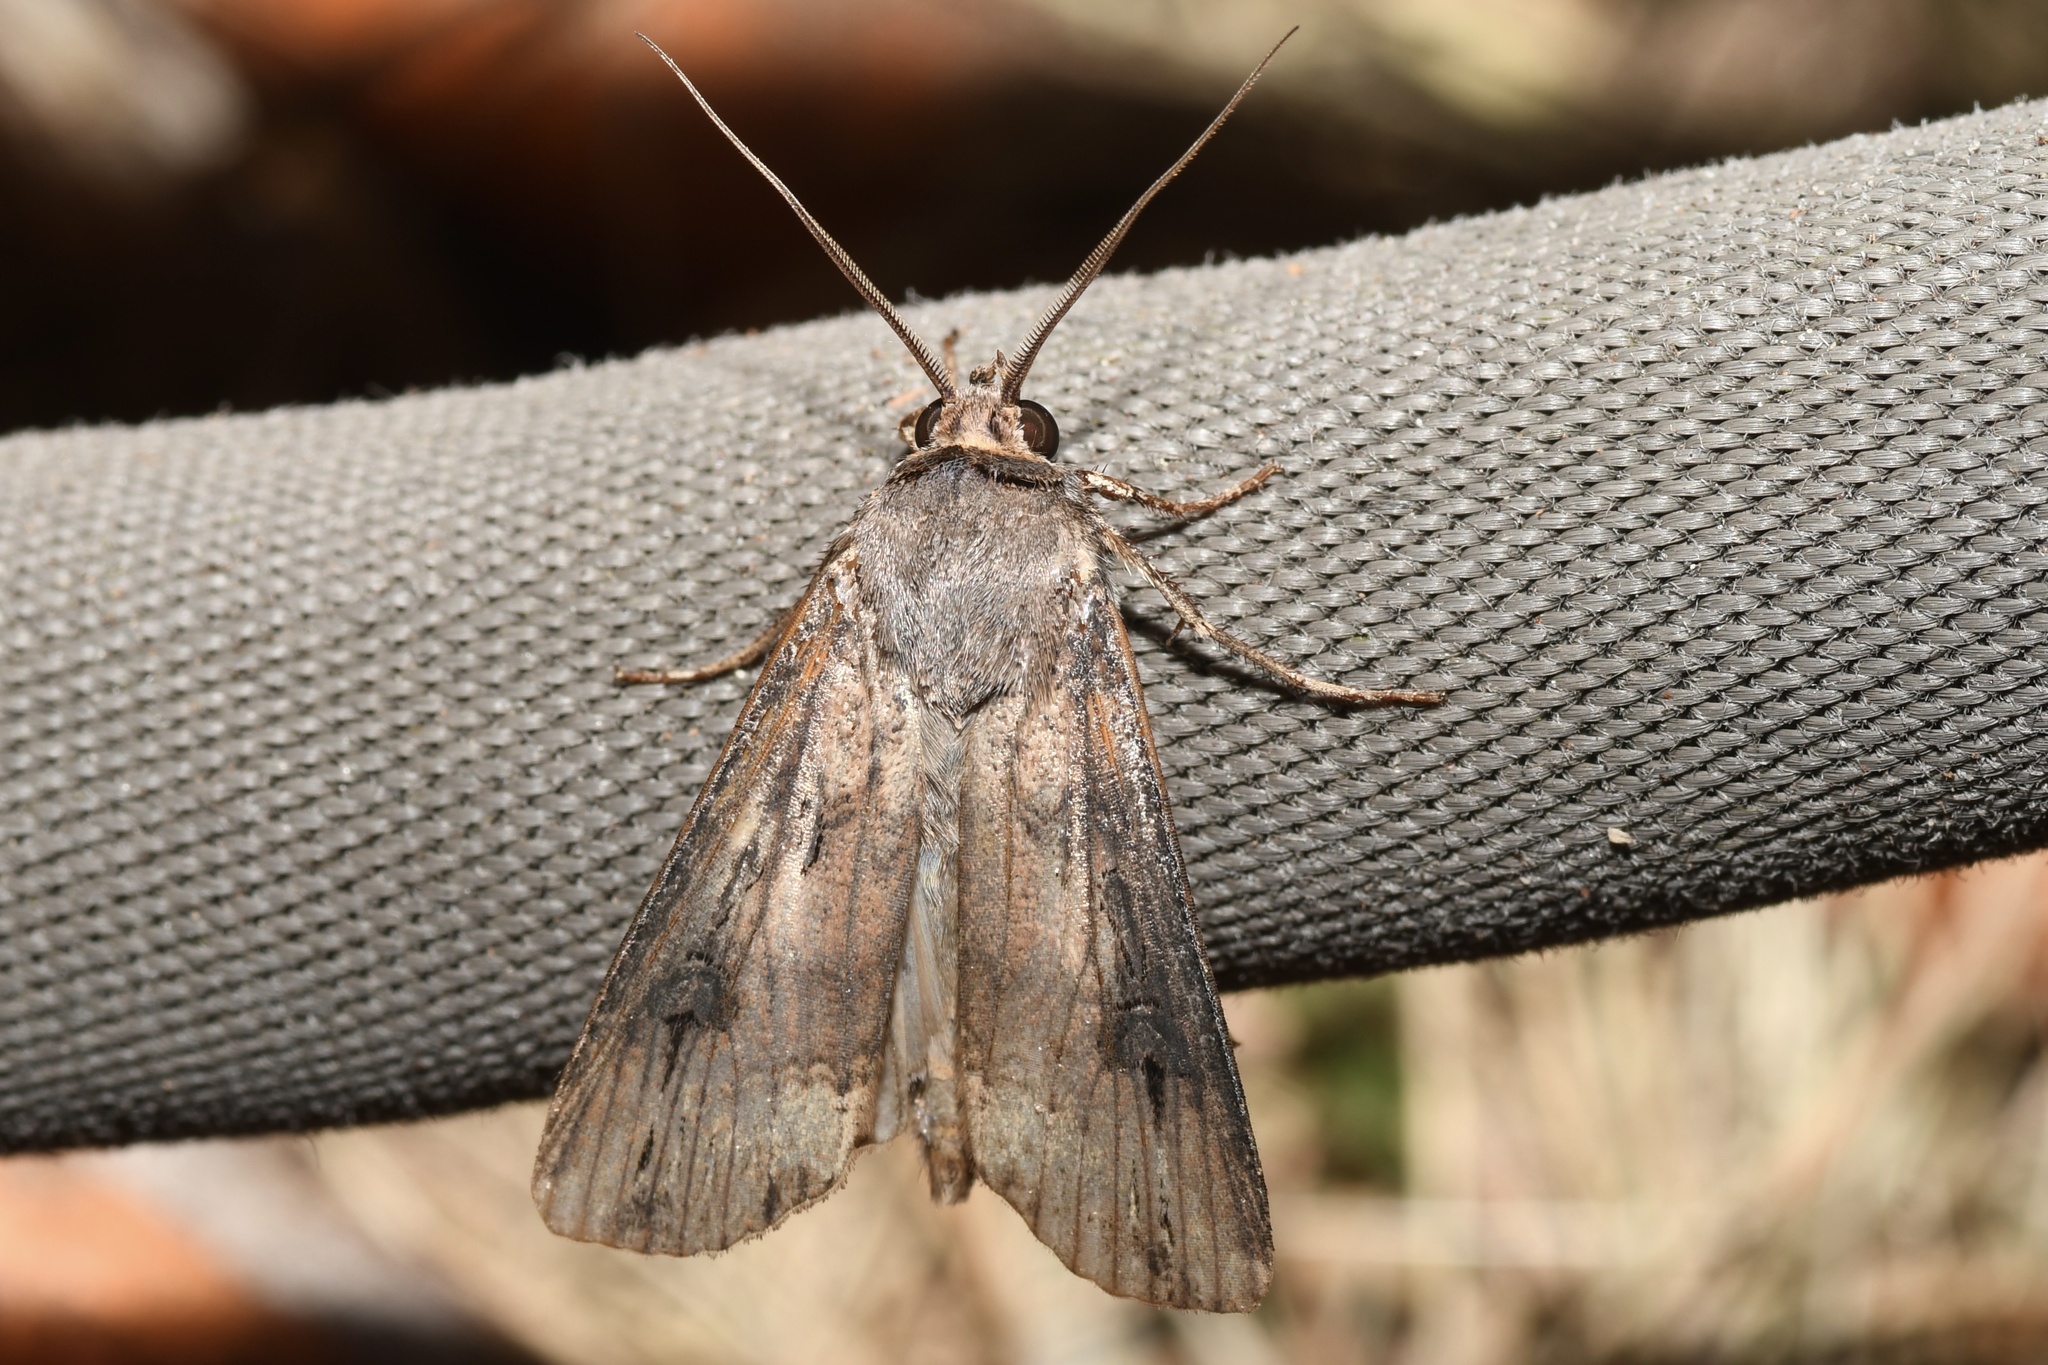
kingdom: Animalia
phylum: Arthropoda
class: Insecta
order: Lepidoptera
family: Noctuidae
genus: Agrotis
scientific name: Agrotis ipsilon
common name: Dark sword-grass
